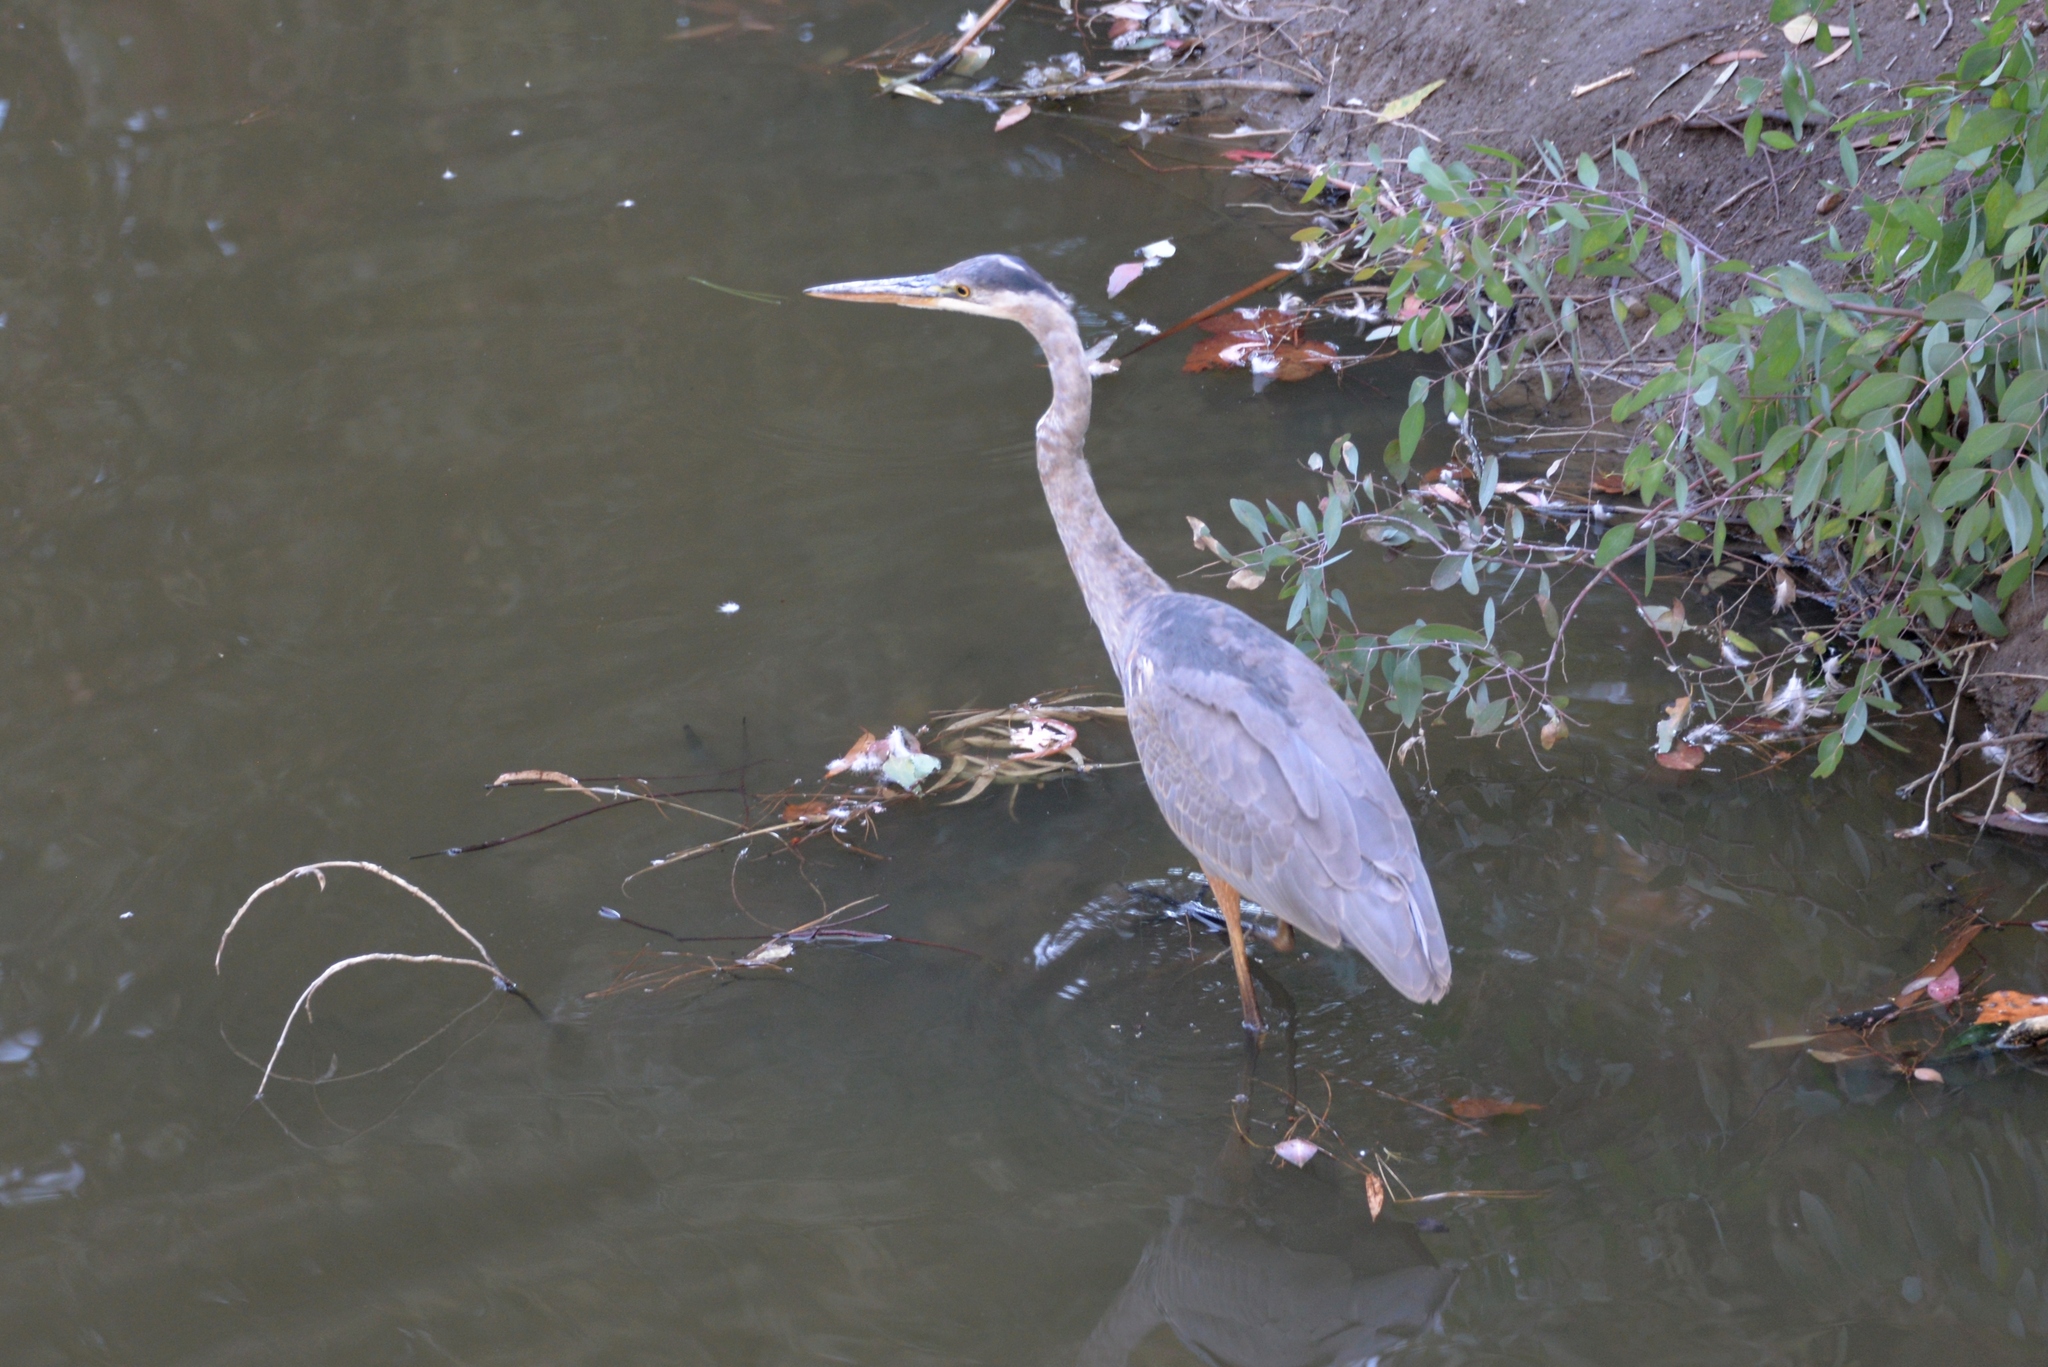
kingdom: Animalia
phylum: Chordata
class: Aves
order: Pelecaniformes
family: Ardeidae
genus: Ardea
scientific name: Ardea herodias
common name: Great blue heron
